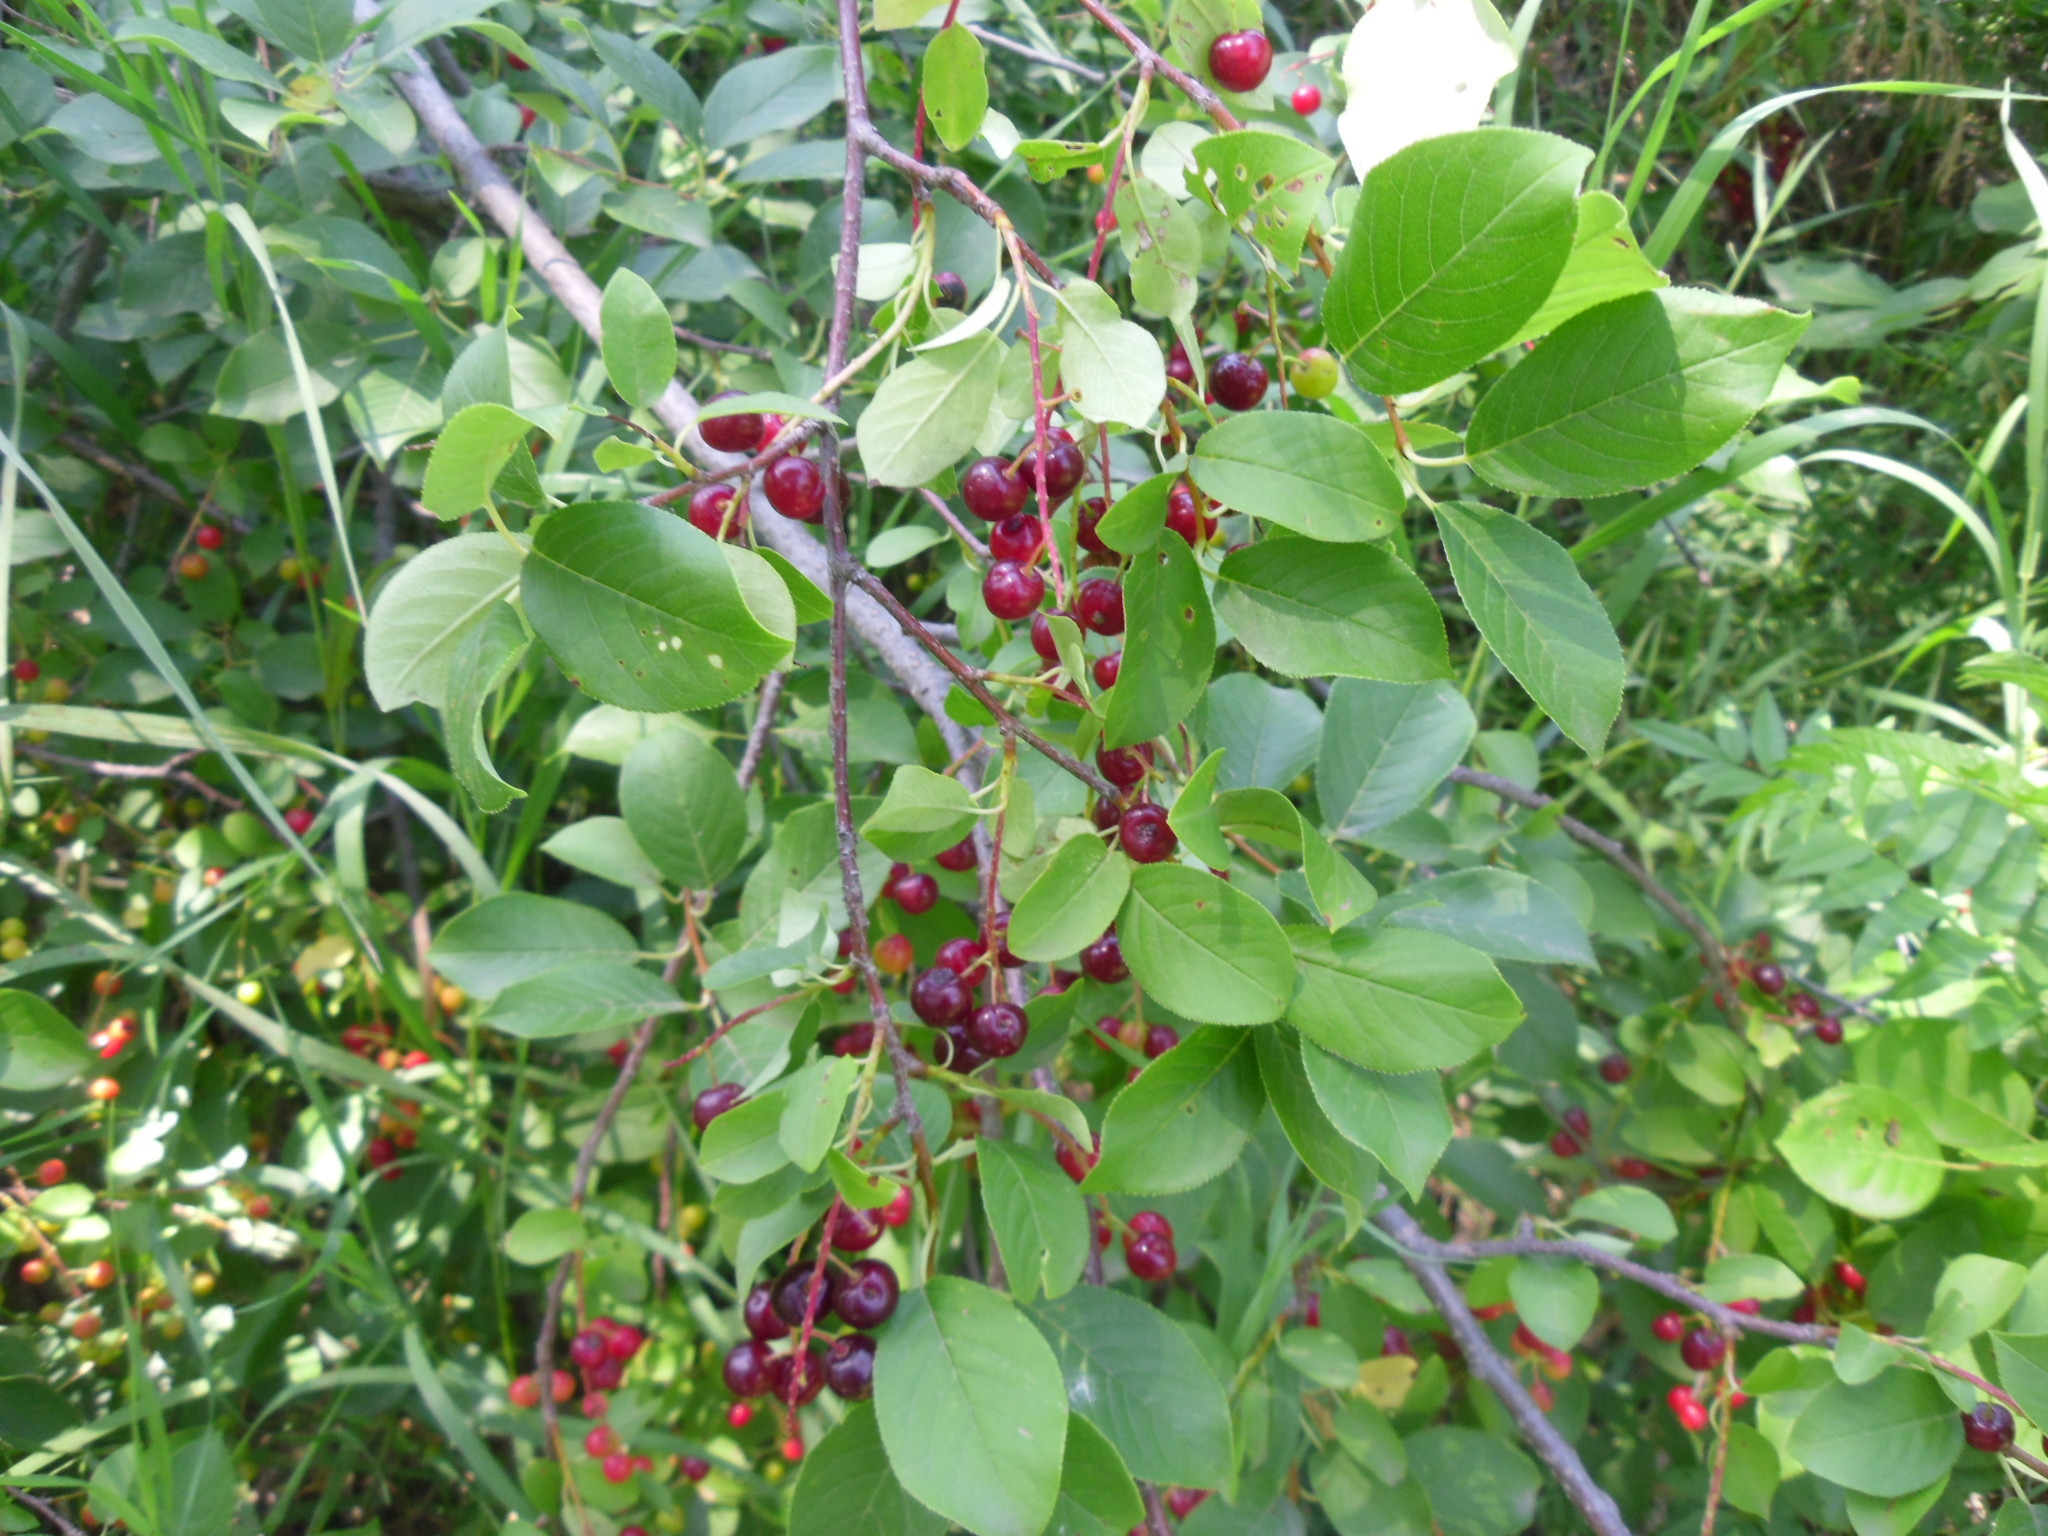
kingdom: Plantae
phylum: Tracheophyta
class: Magnoliopsida
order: Rosales
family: Rosaceae
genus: Prunus
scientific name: Prunus virginiana
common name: Chokecherry
